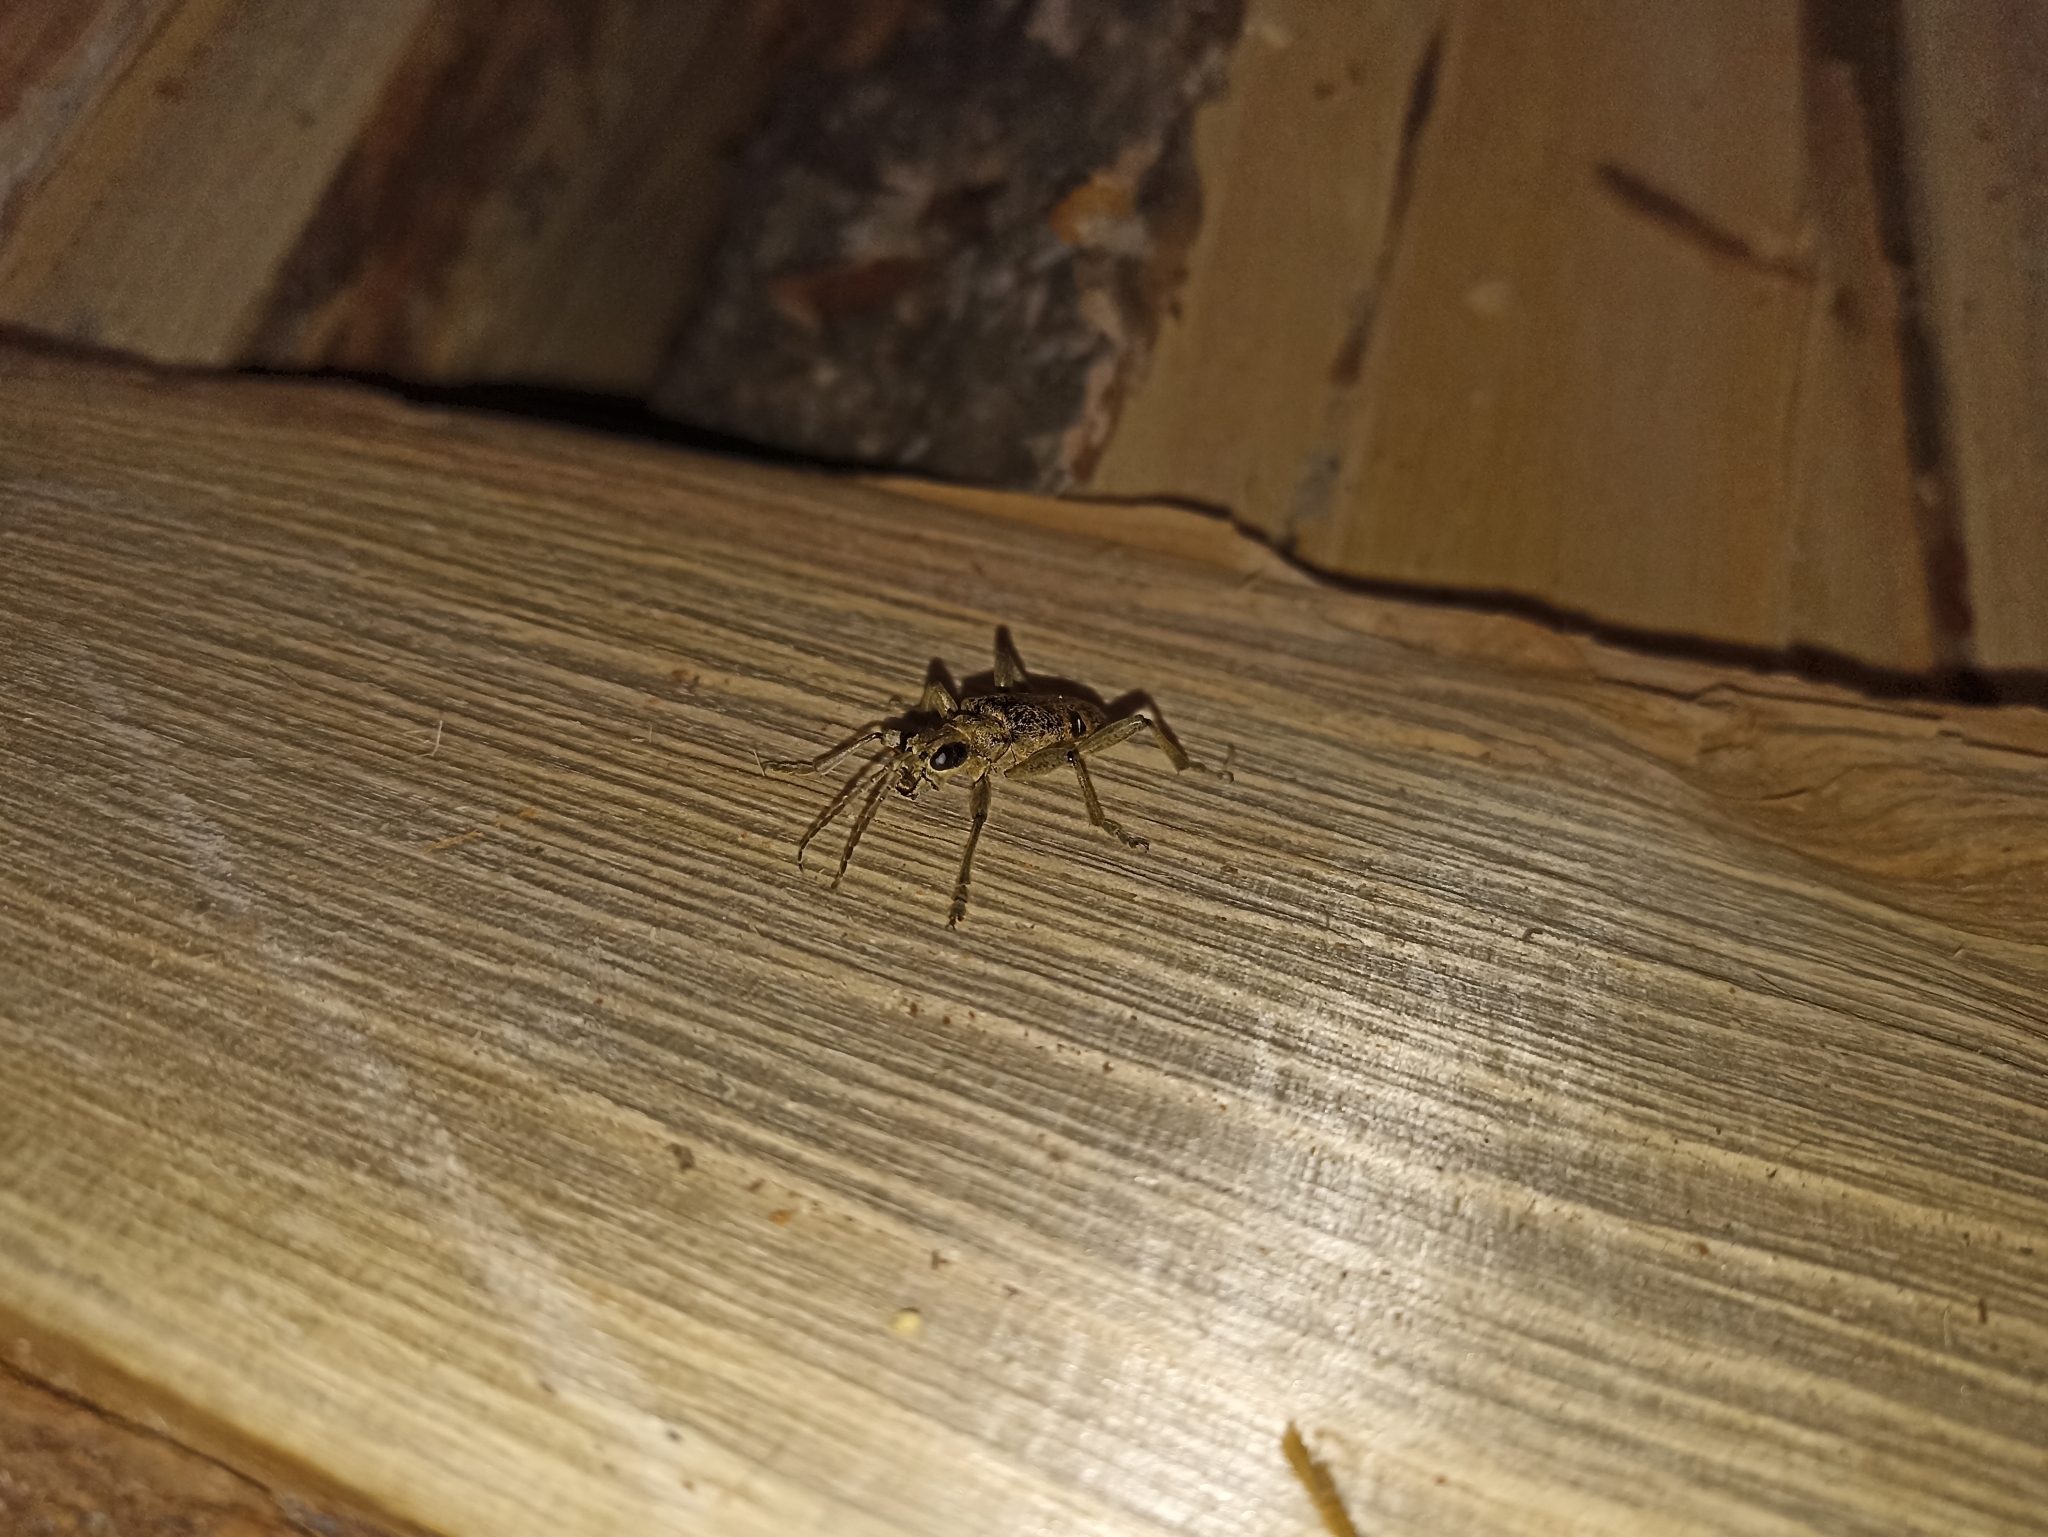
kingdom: Animalia
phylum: Arthropoda
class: Insecta
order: Coleoptera
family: Cerambycidae
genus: Rhagium
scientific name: Rhagium mordax
